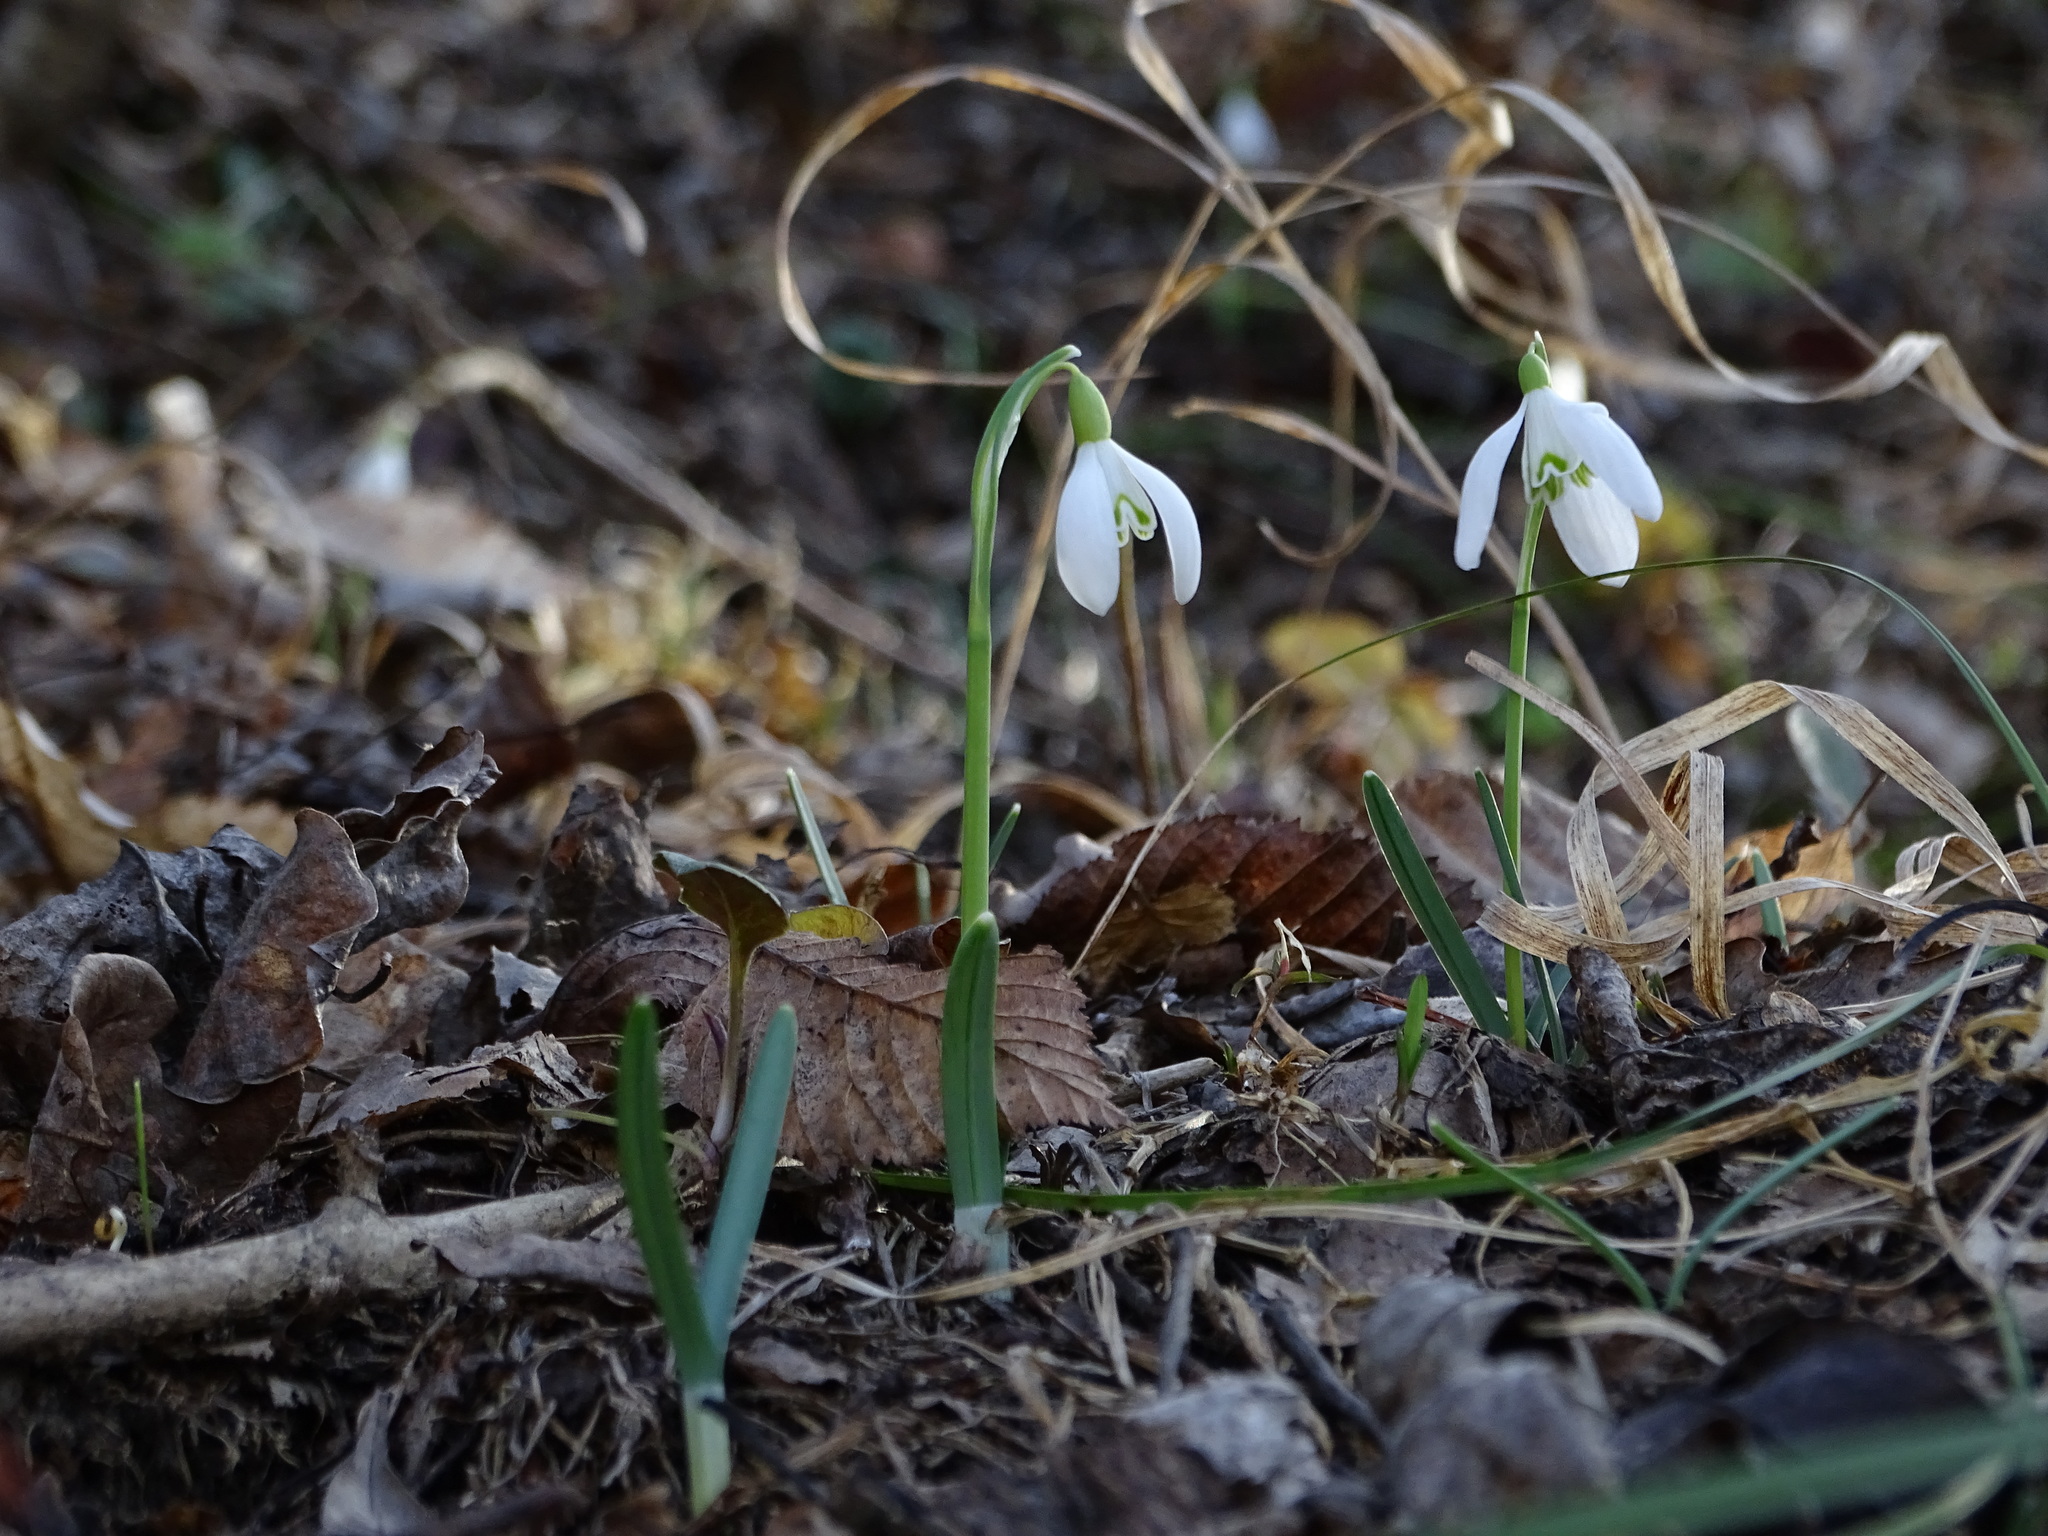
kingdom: Plantae
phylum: Tracheophyta
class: Liliopsida
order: Asparagales
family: Amaryllidaceae
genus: Galanthus
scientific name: Galanthus nivalis
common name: Snowdrop
